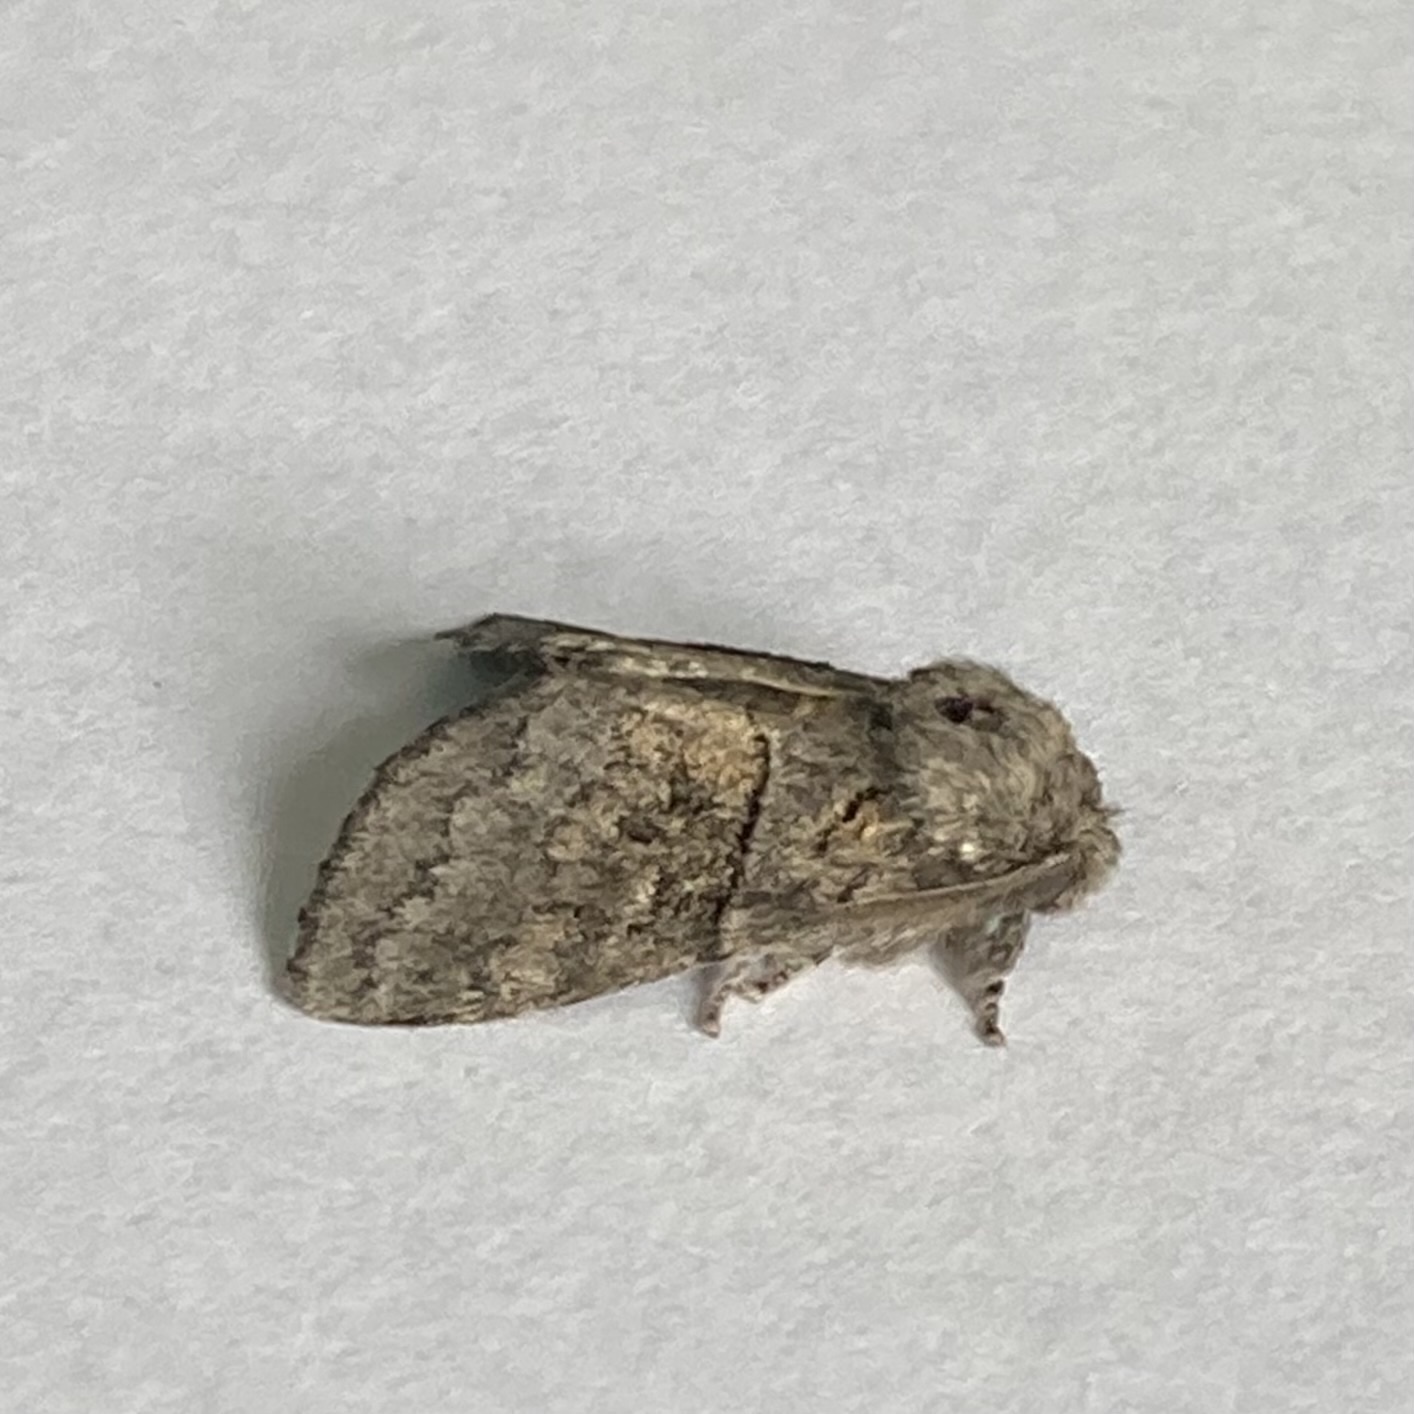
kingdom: Animalia
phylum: Arthropoda
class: Insecta
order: Lepidoptera
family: Notodontidae
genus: Gluphisia
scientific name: Gluphisia septentrionis
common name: Common gluphisia
